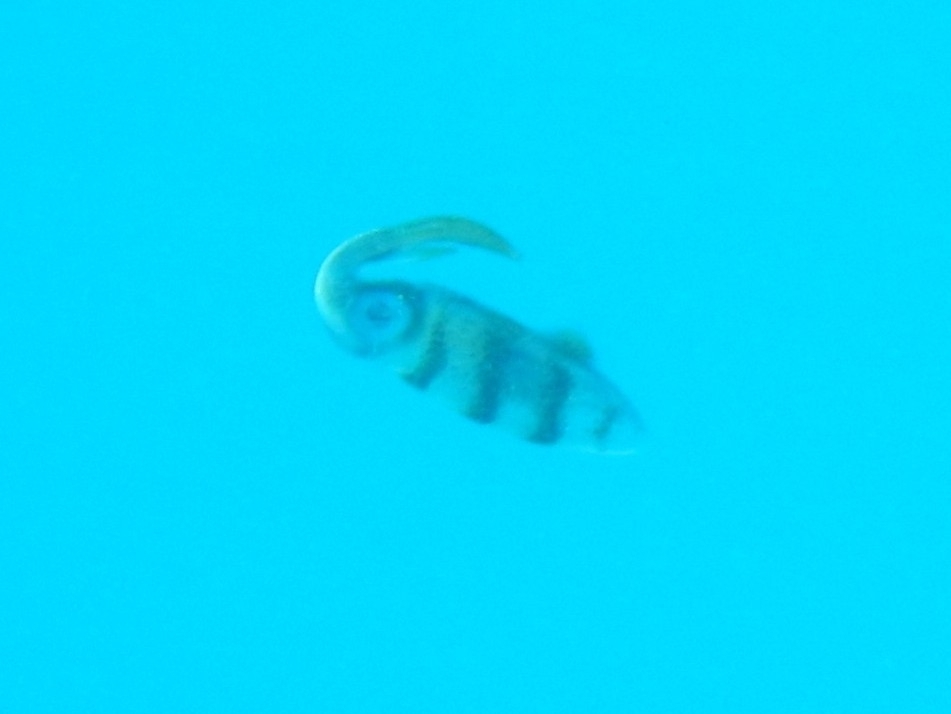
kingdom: Animalia
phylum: Mollusca
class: Cephalopoda
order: Myopsida
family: Loliginidae
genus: Sepioteuthis
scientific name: Sepioteuthis sepioidea
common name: Caribbean reef squid
